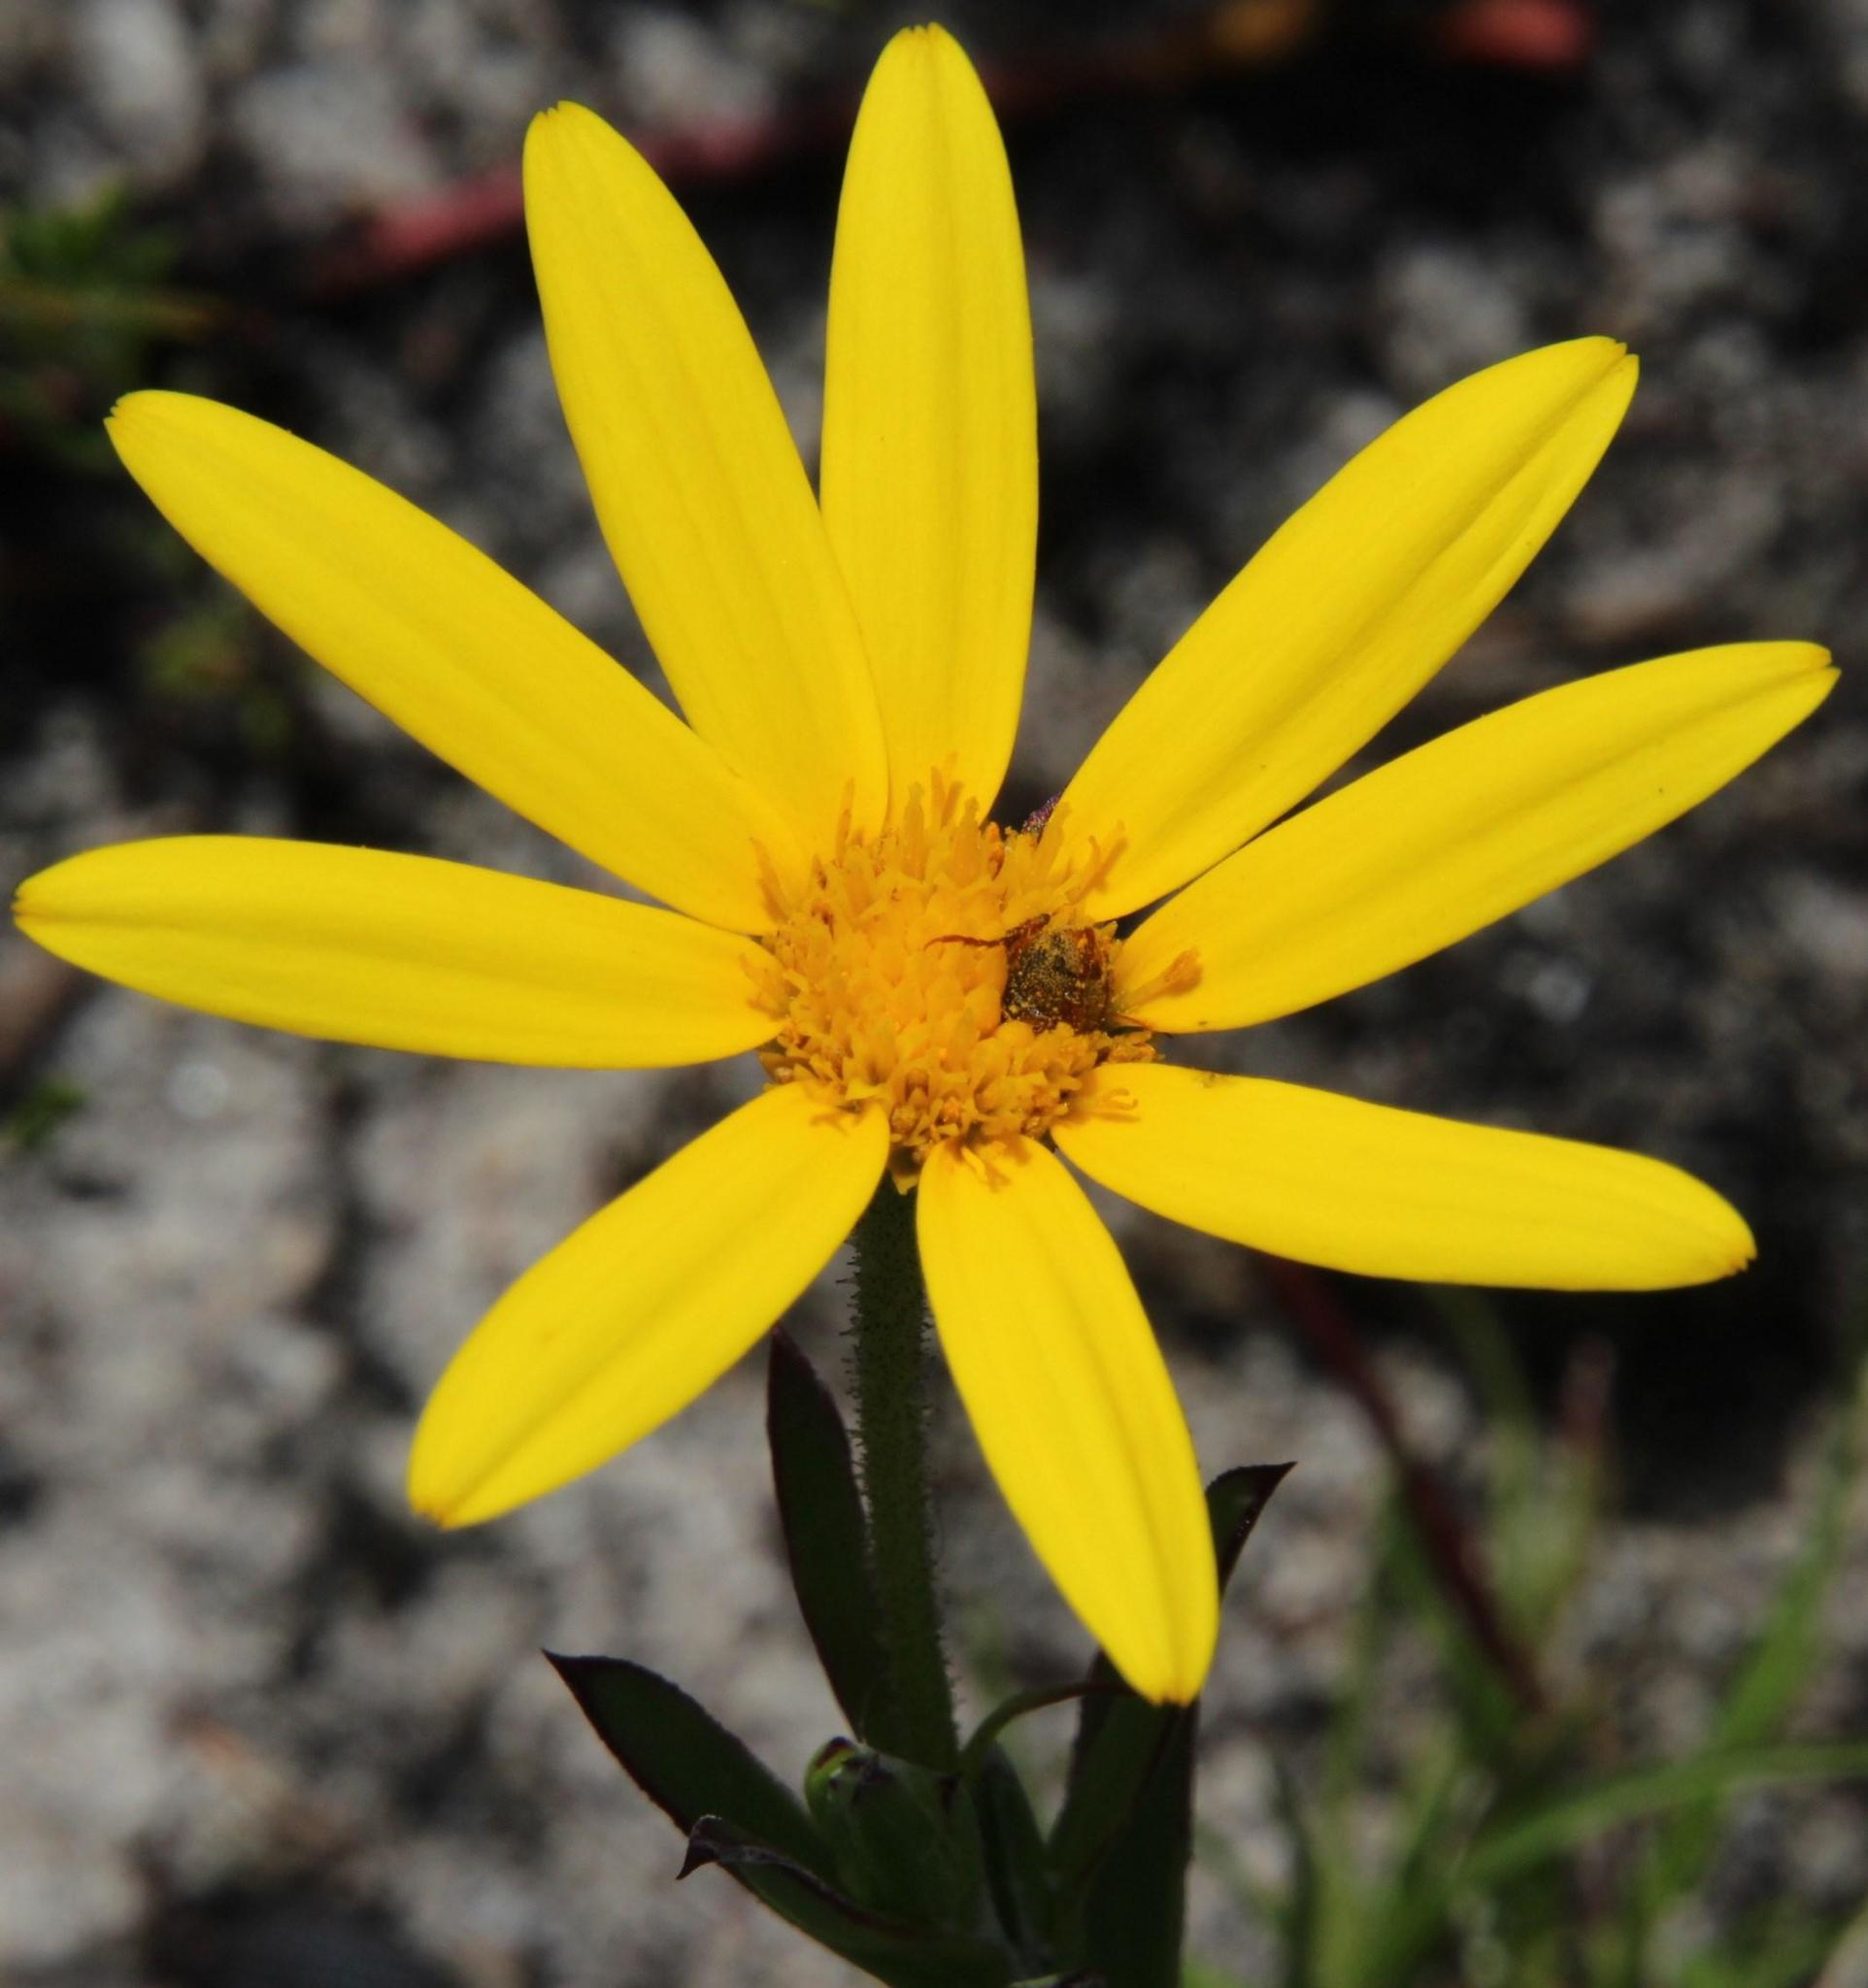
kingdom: Plantae
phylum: Tracheophyta
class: Magnoliopsida
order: Asterales
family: Asteraceae
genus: Osteospermum
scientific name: Osteospermum polygaloides
